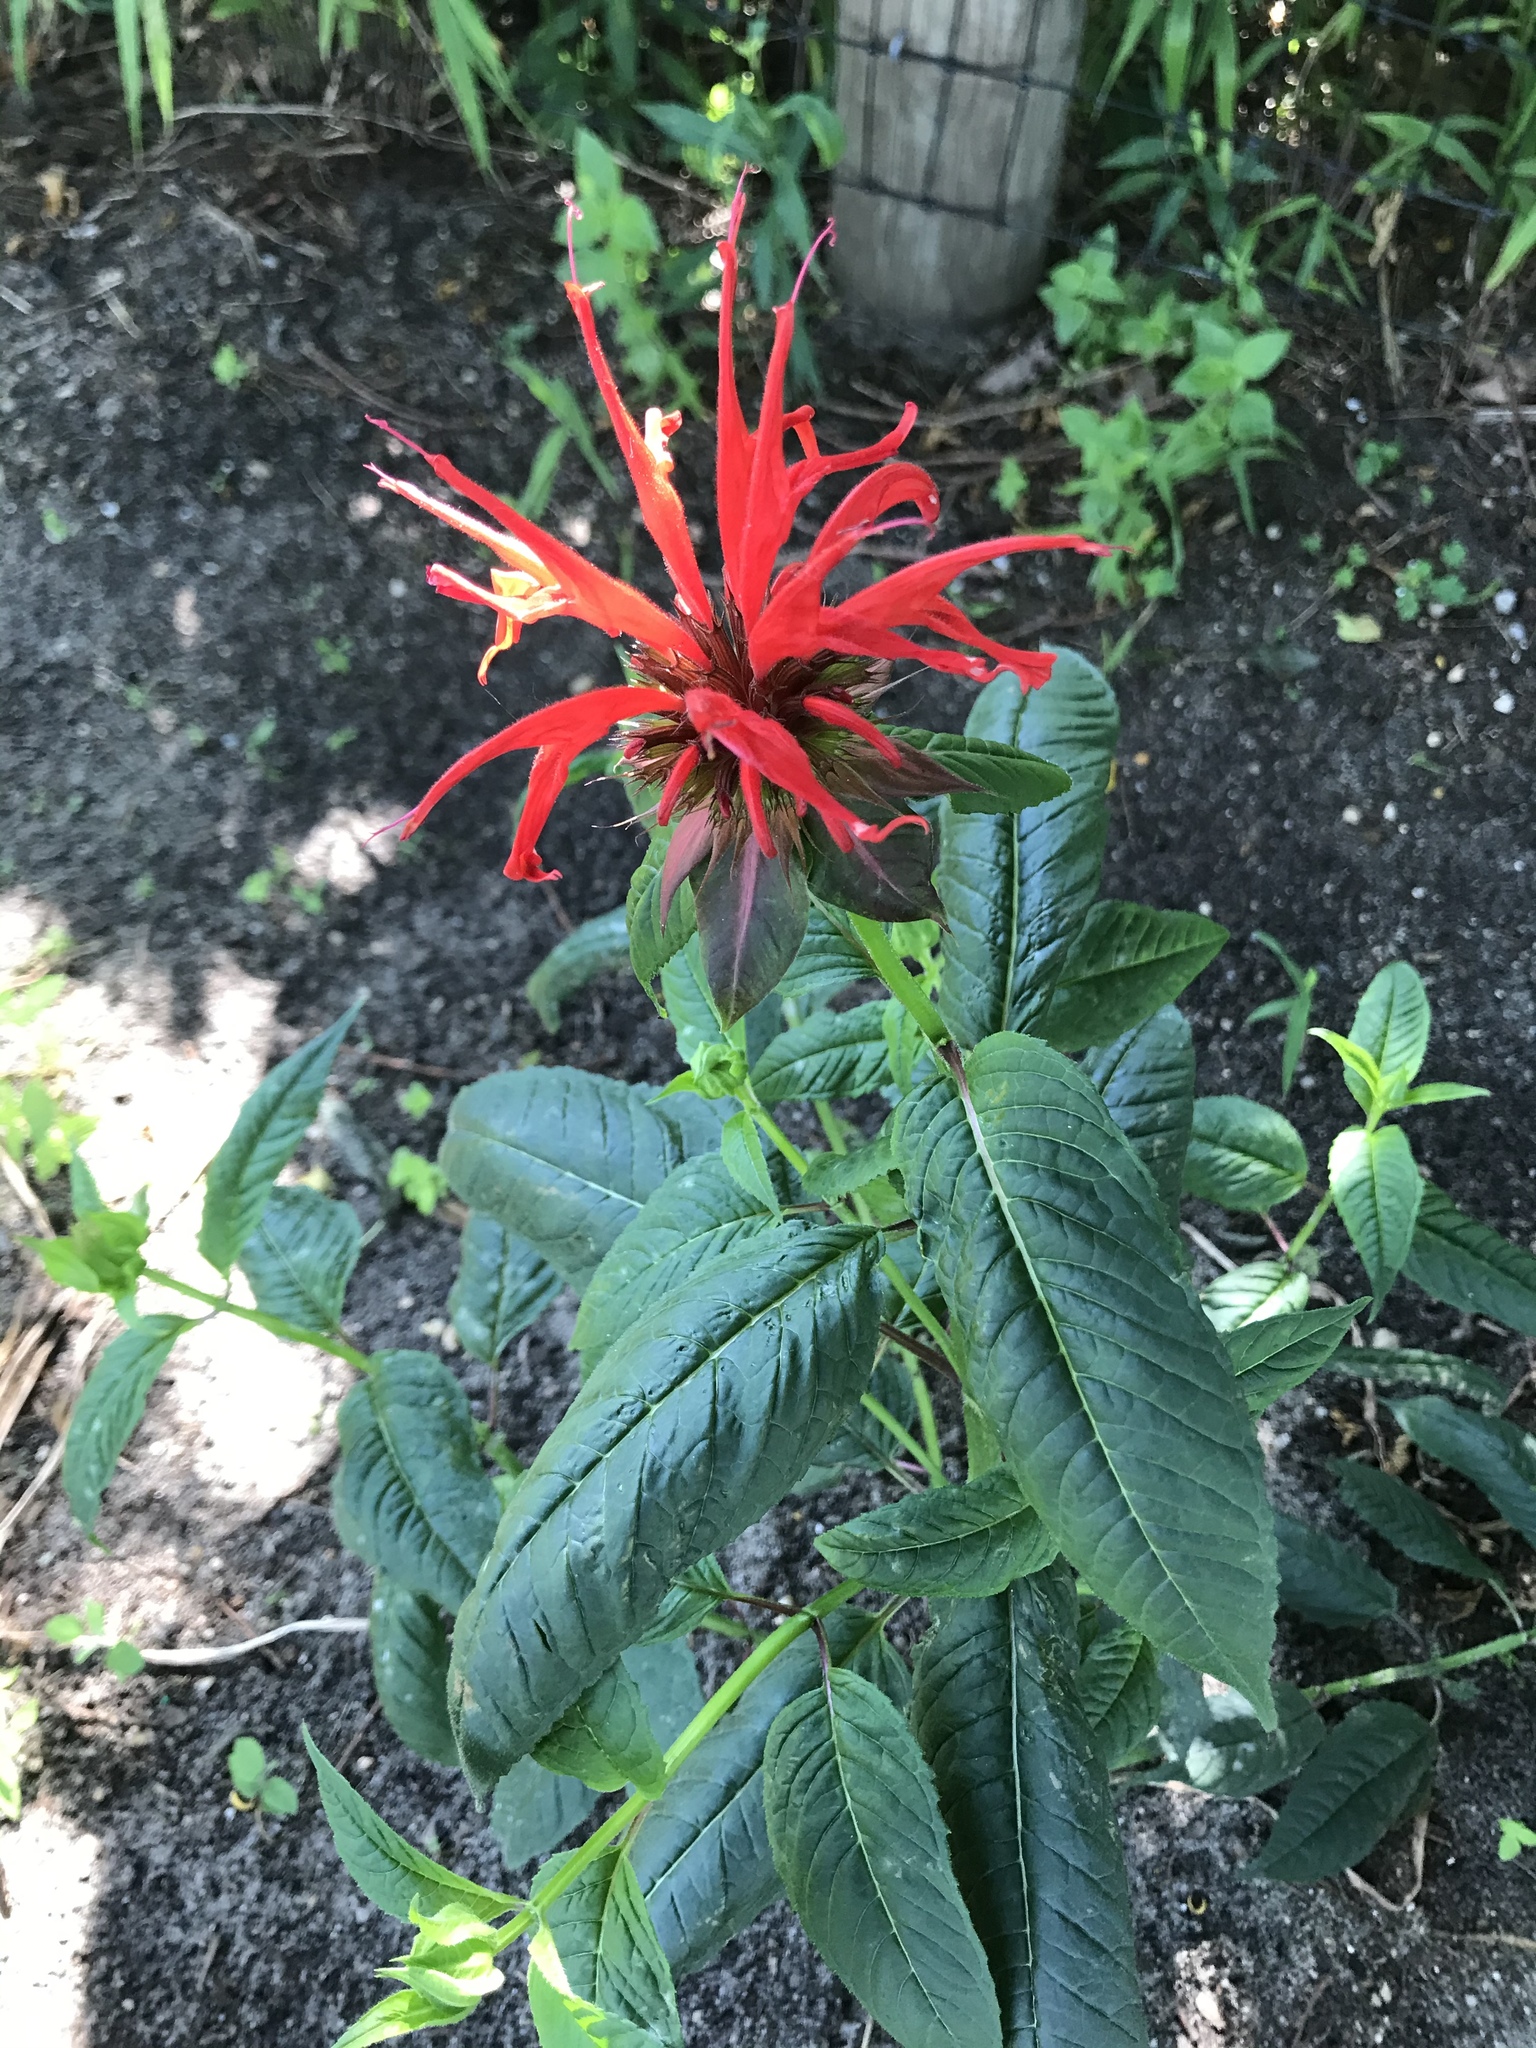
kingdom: Plantae
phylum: Tracheophyta
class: Magnoliopsida
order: Lamiales
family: Lamiaceae
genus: Monarda
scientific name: Monarda didyma
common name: Beebalm
